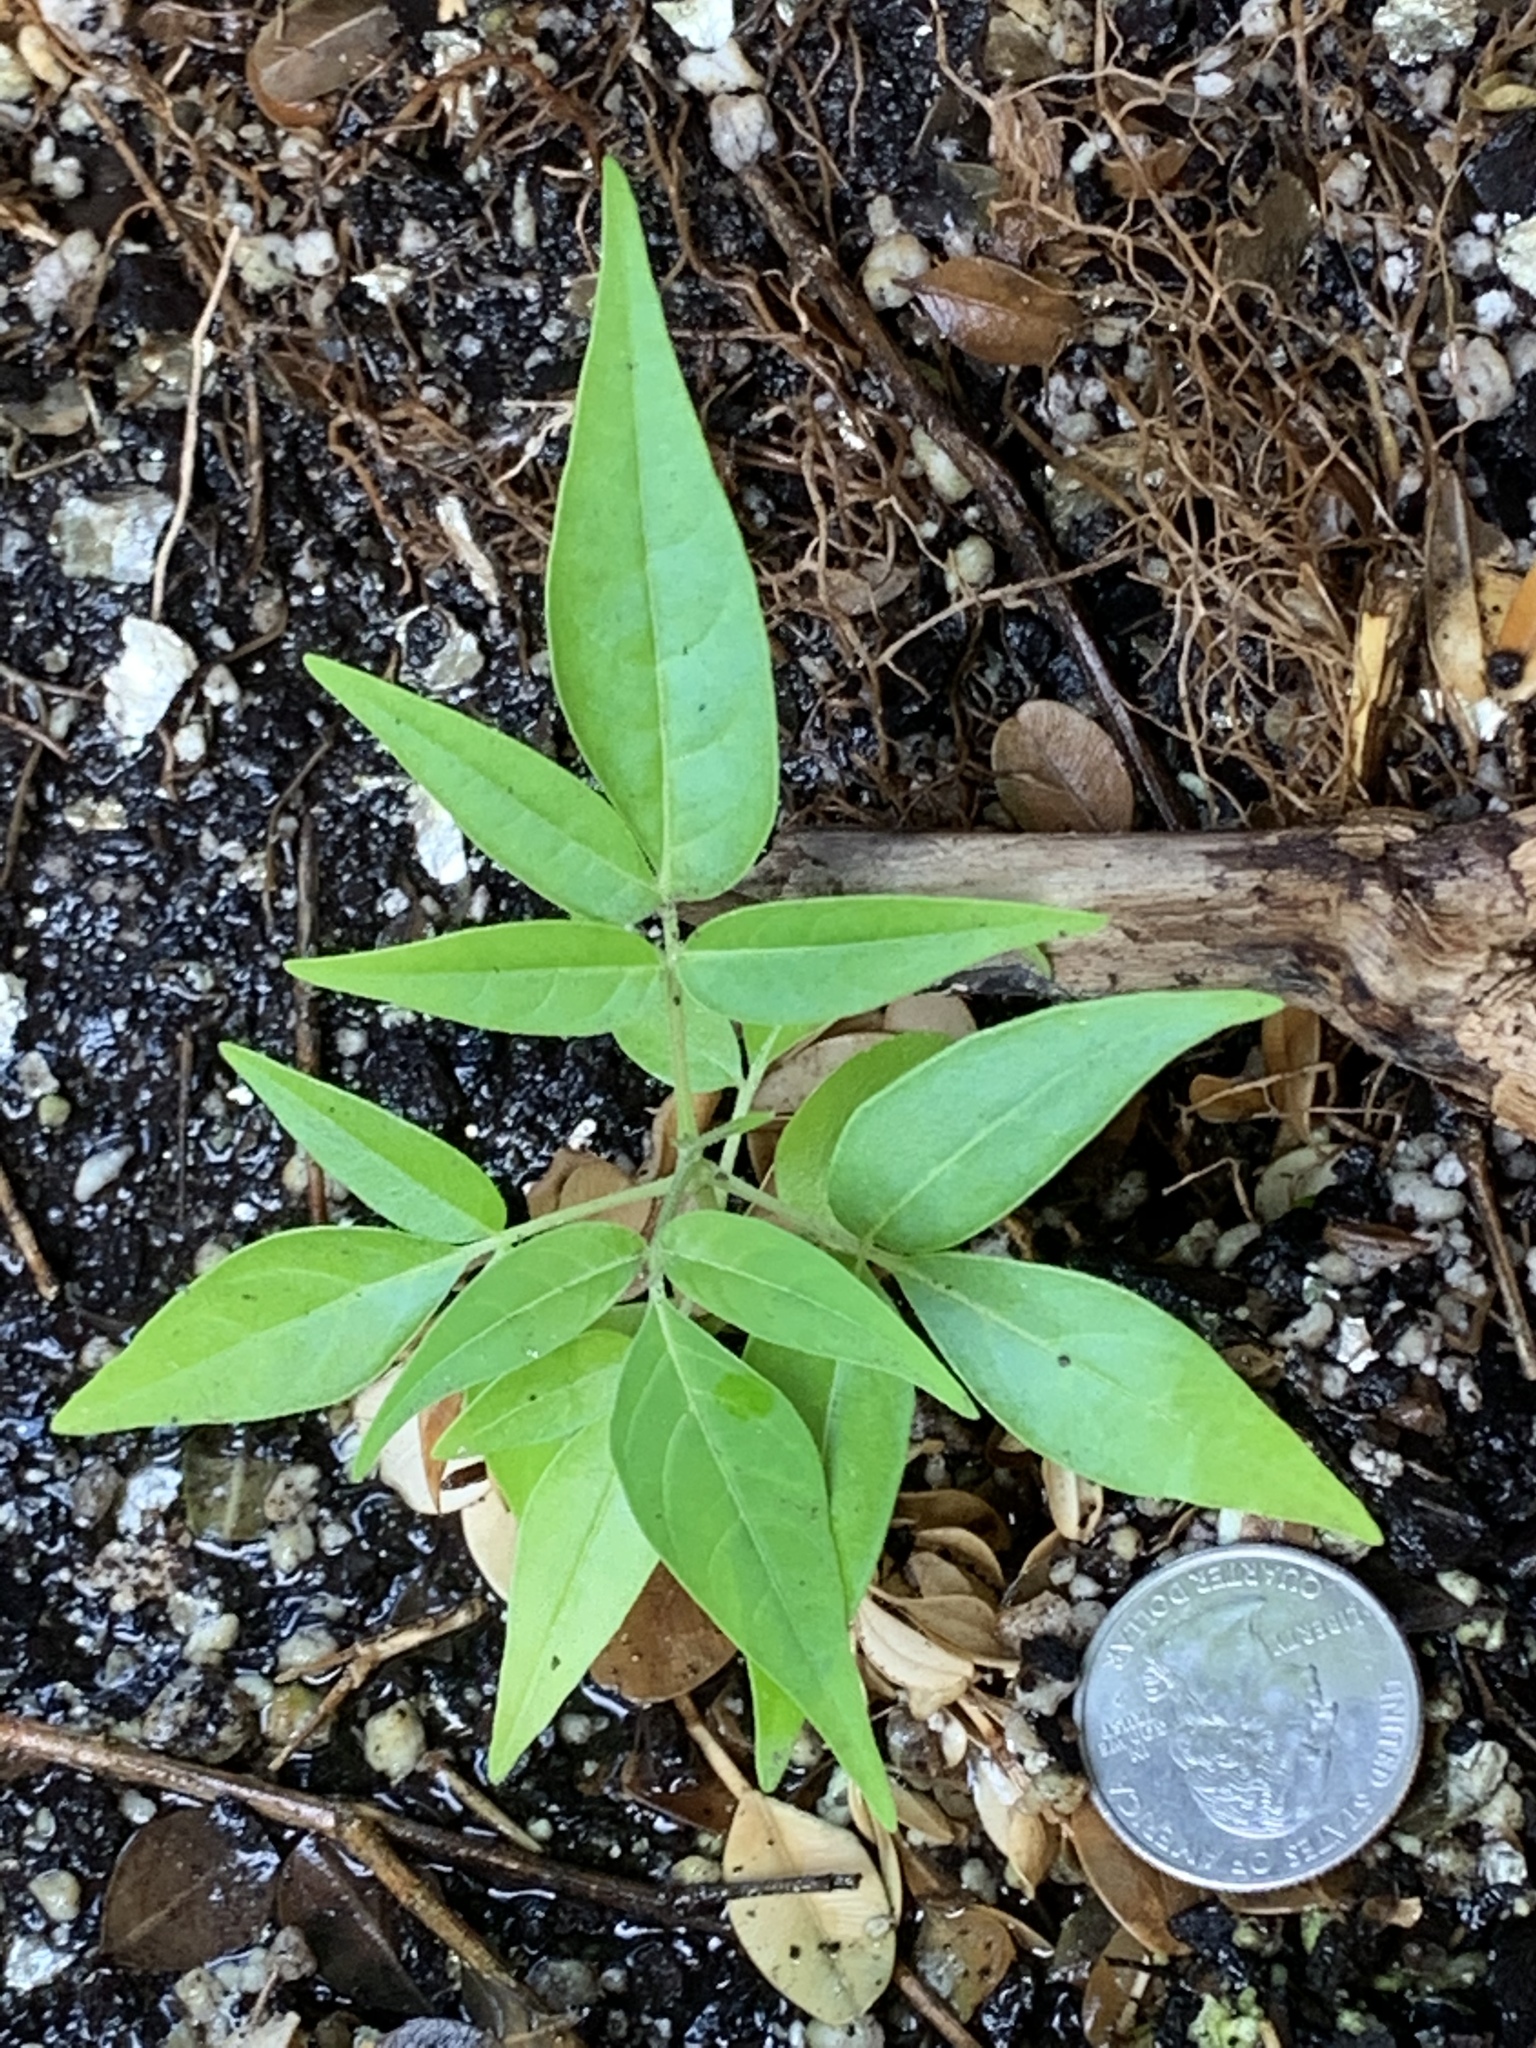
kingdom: Plantae
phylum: Tracheophyta
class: Magnoliopsida
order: Sapindales
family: Simaroubaceae
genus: Ailanthus
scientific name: Ailanthus altissima
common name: Tree-of-heaven
